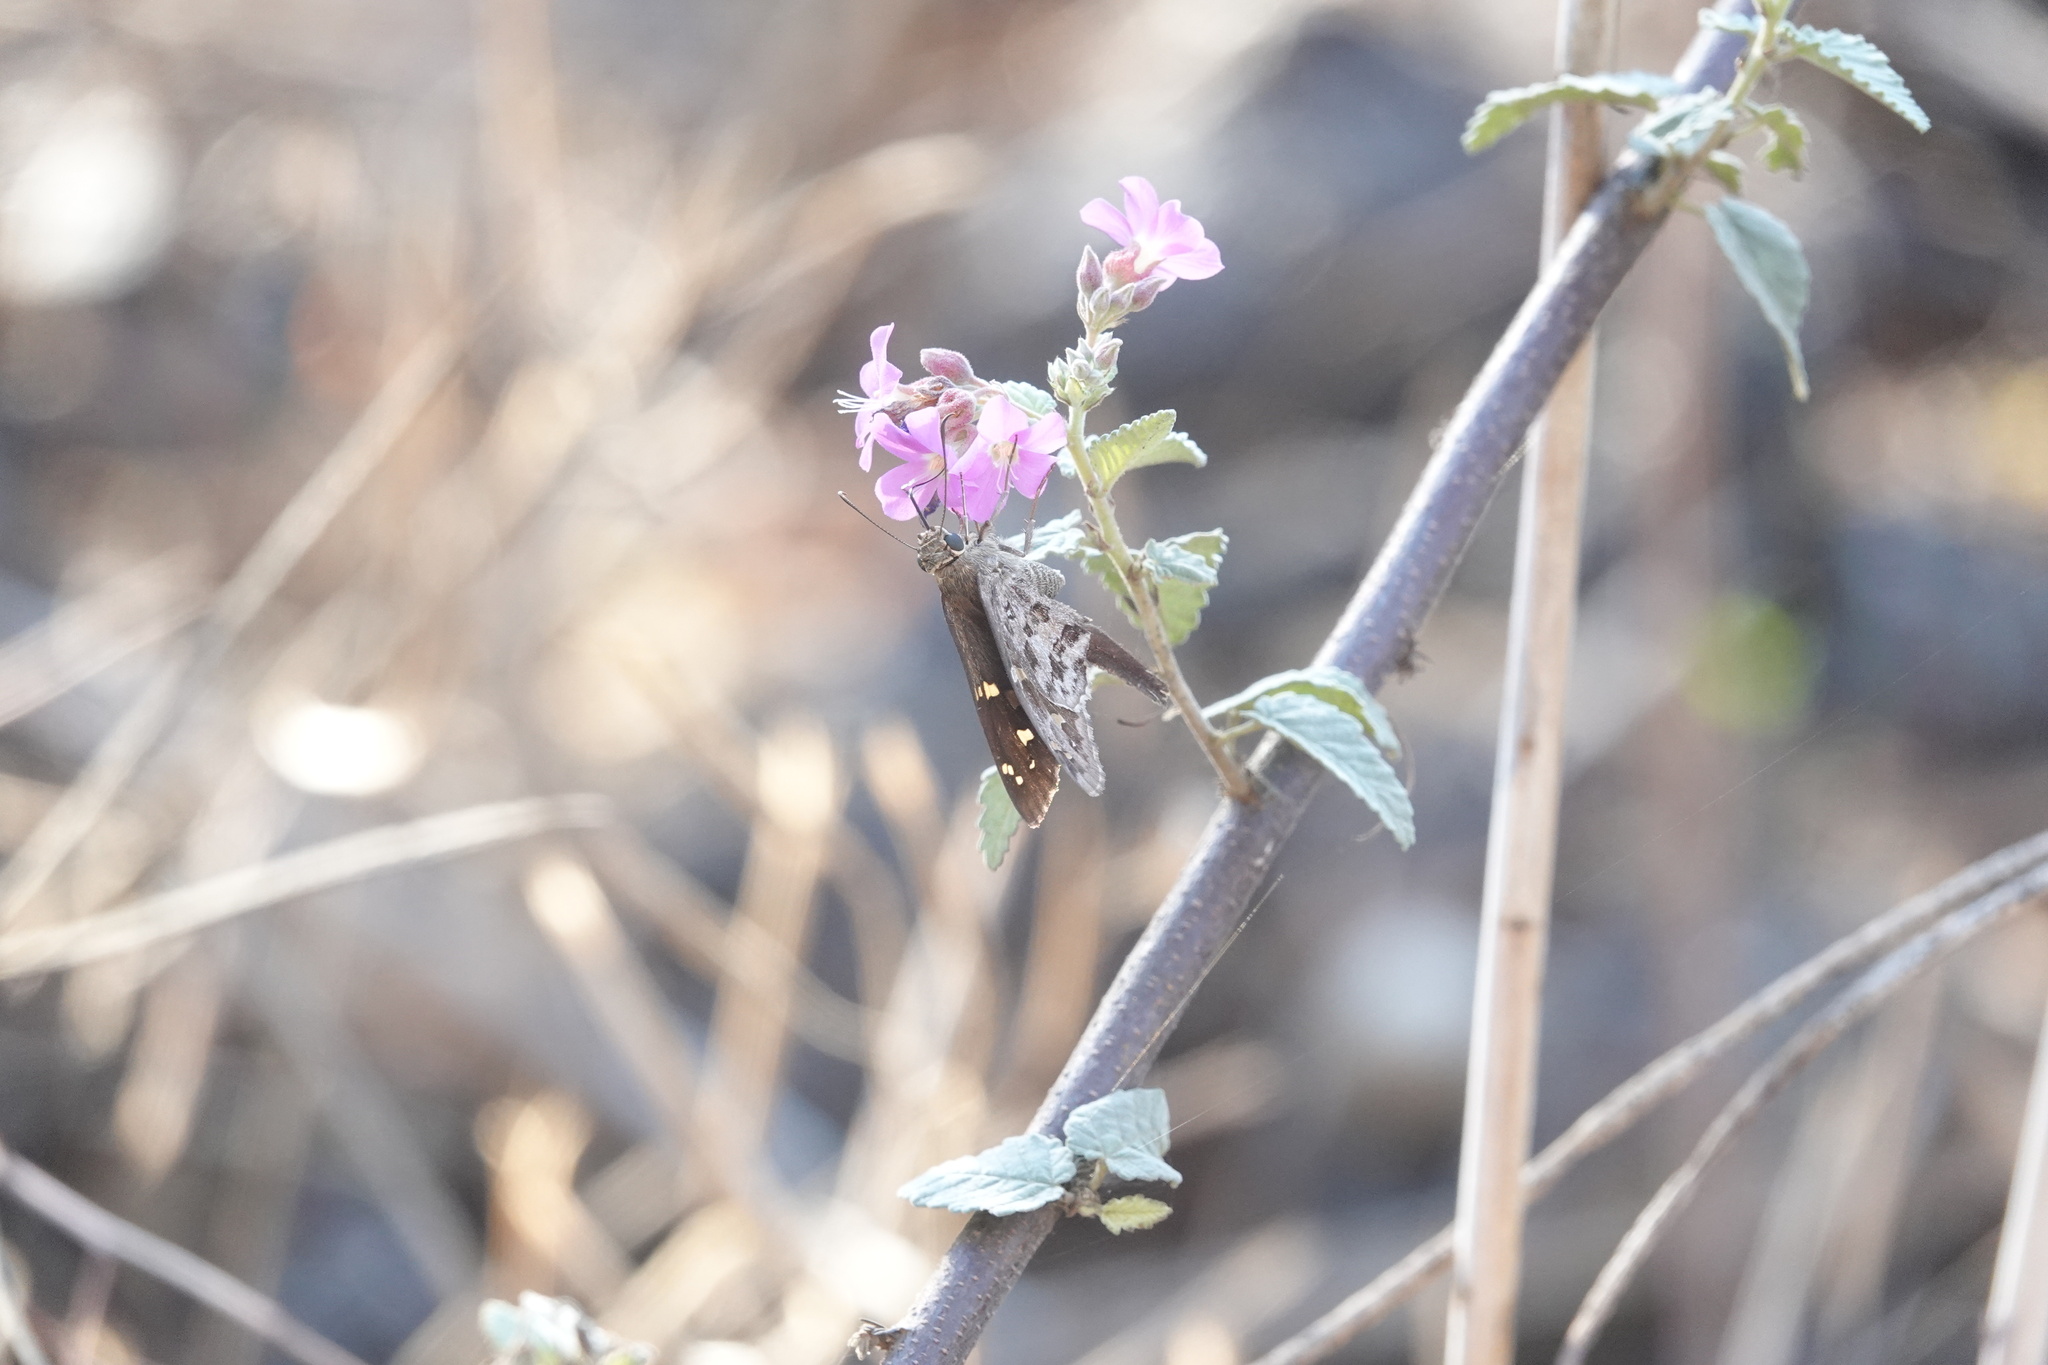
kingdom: Animalia
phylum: Arthropoda
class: Insecta
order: Lepidoptera
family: Hesperiidae
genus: Synapte
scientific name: Synapte syraces
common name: Faceted skipper
